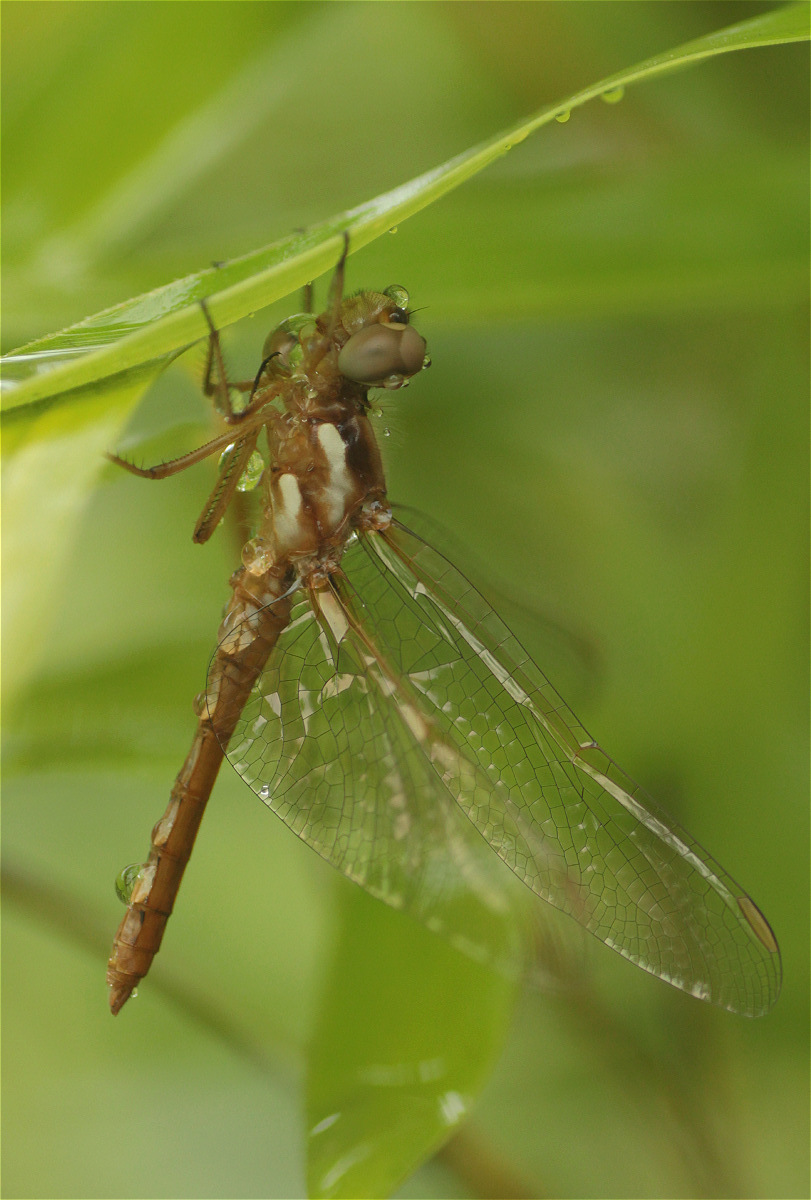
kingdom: Animalia
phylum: Arthropoda
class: Insecta
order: Odonata
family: Libellulidae
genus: Sympetrum
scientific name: Sympetrum gilvum
